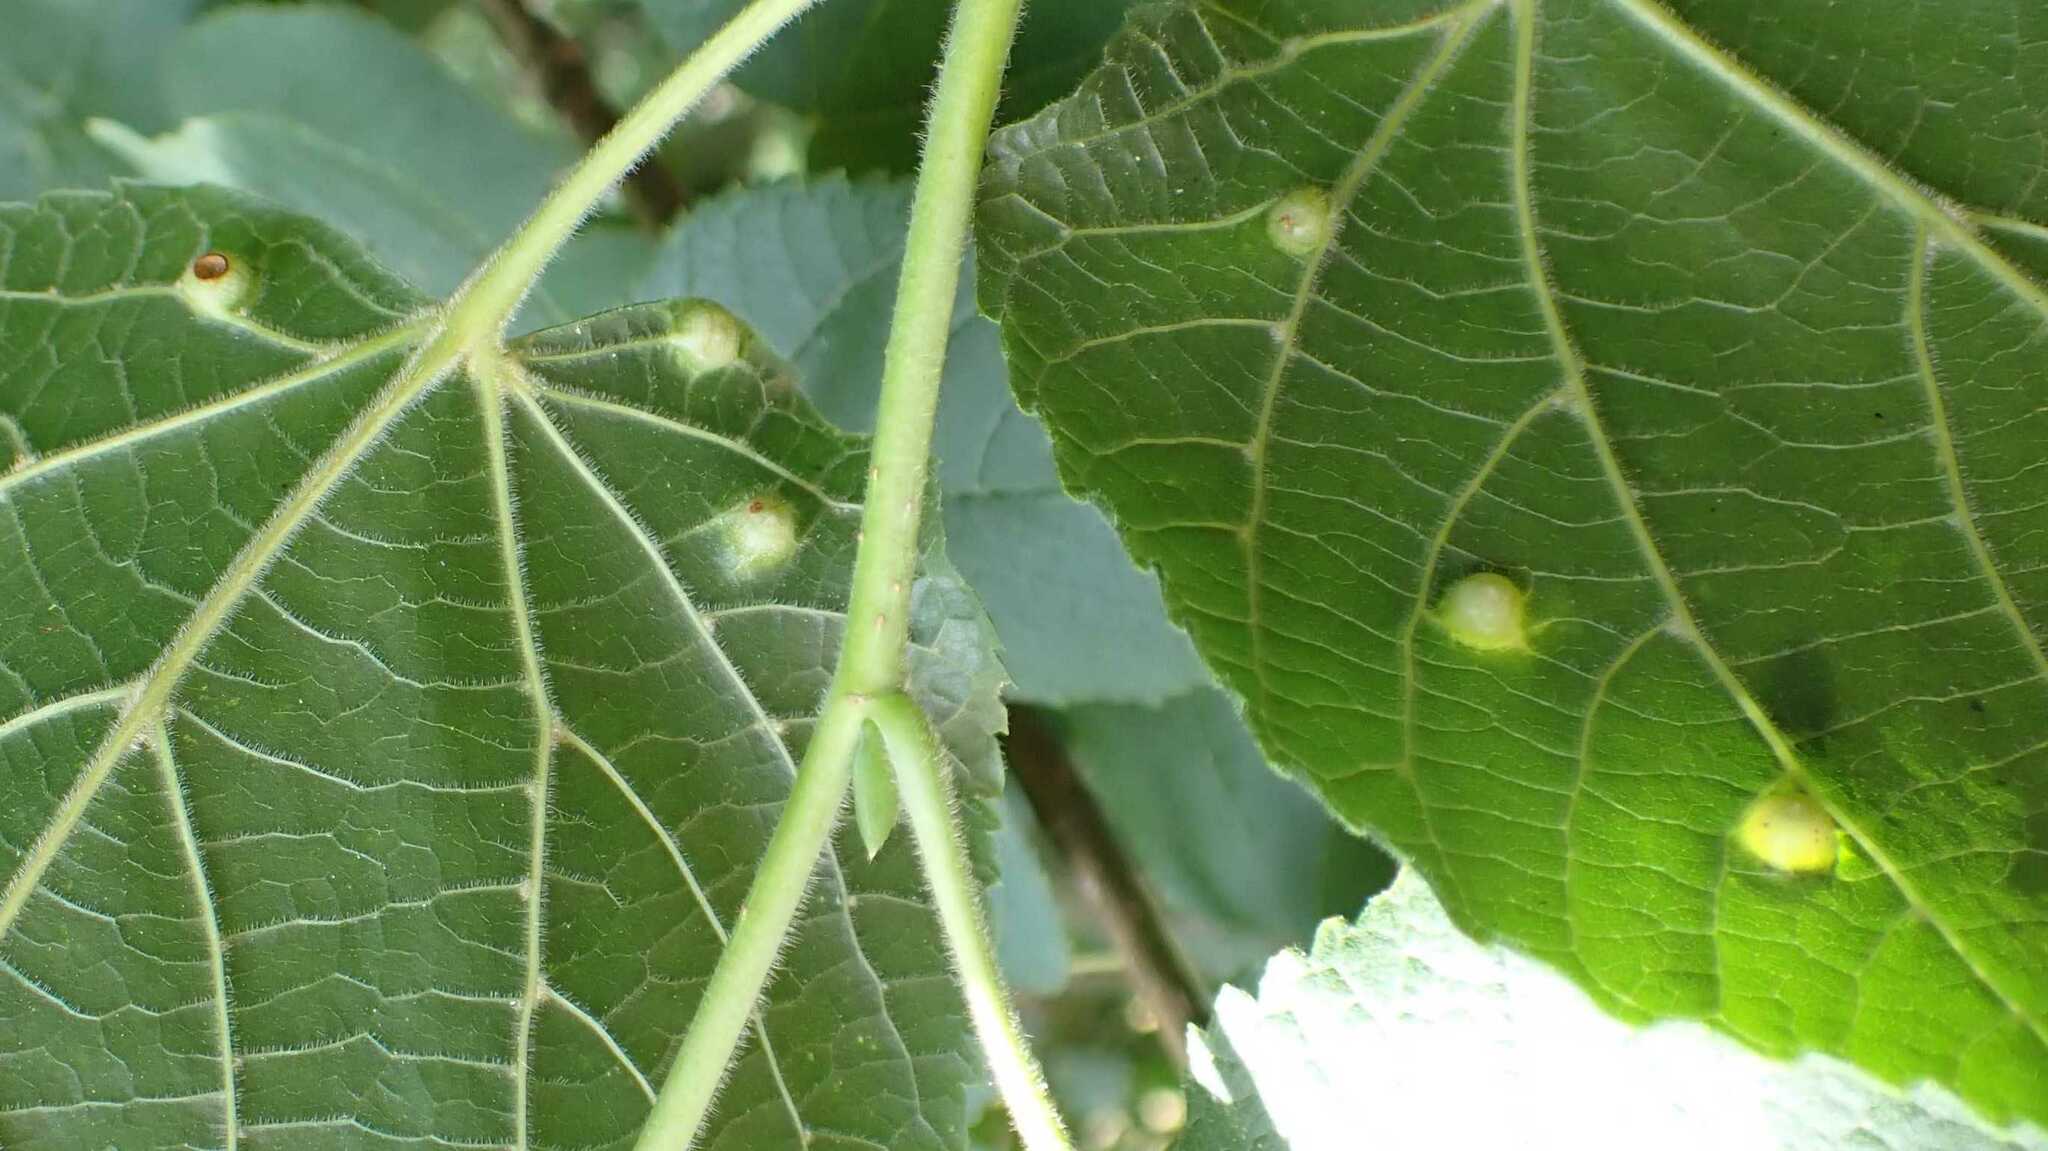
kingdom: Animalia
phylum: Arthropoda
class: Insecta
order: Diptera
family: Cecidomyiidae
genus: Didymomyia
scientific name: Didymomyia tiliacea
